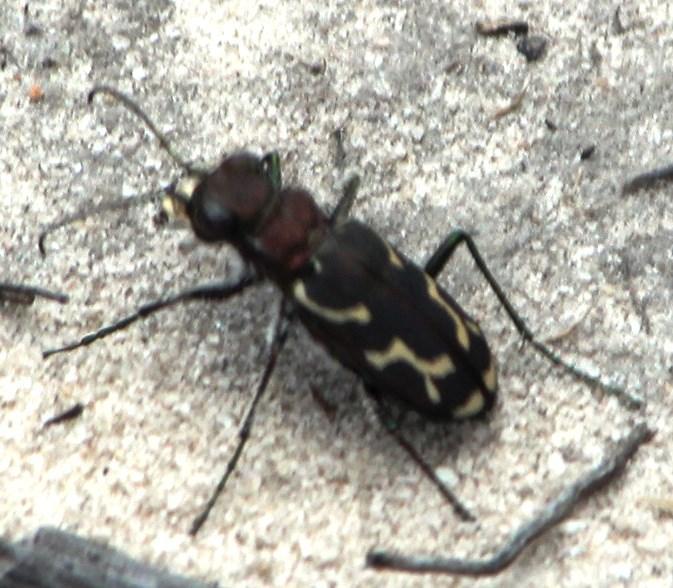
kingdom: Animalia
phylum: Arthropoda
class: Insecta
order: Coleoptera
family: Carabidae
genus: Cicindela
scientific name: Cicindela lurida
